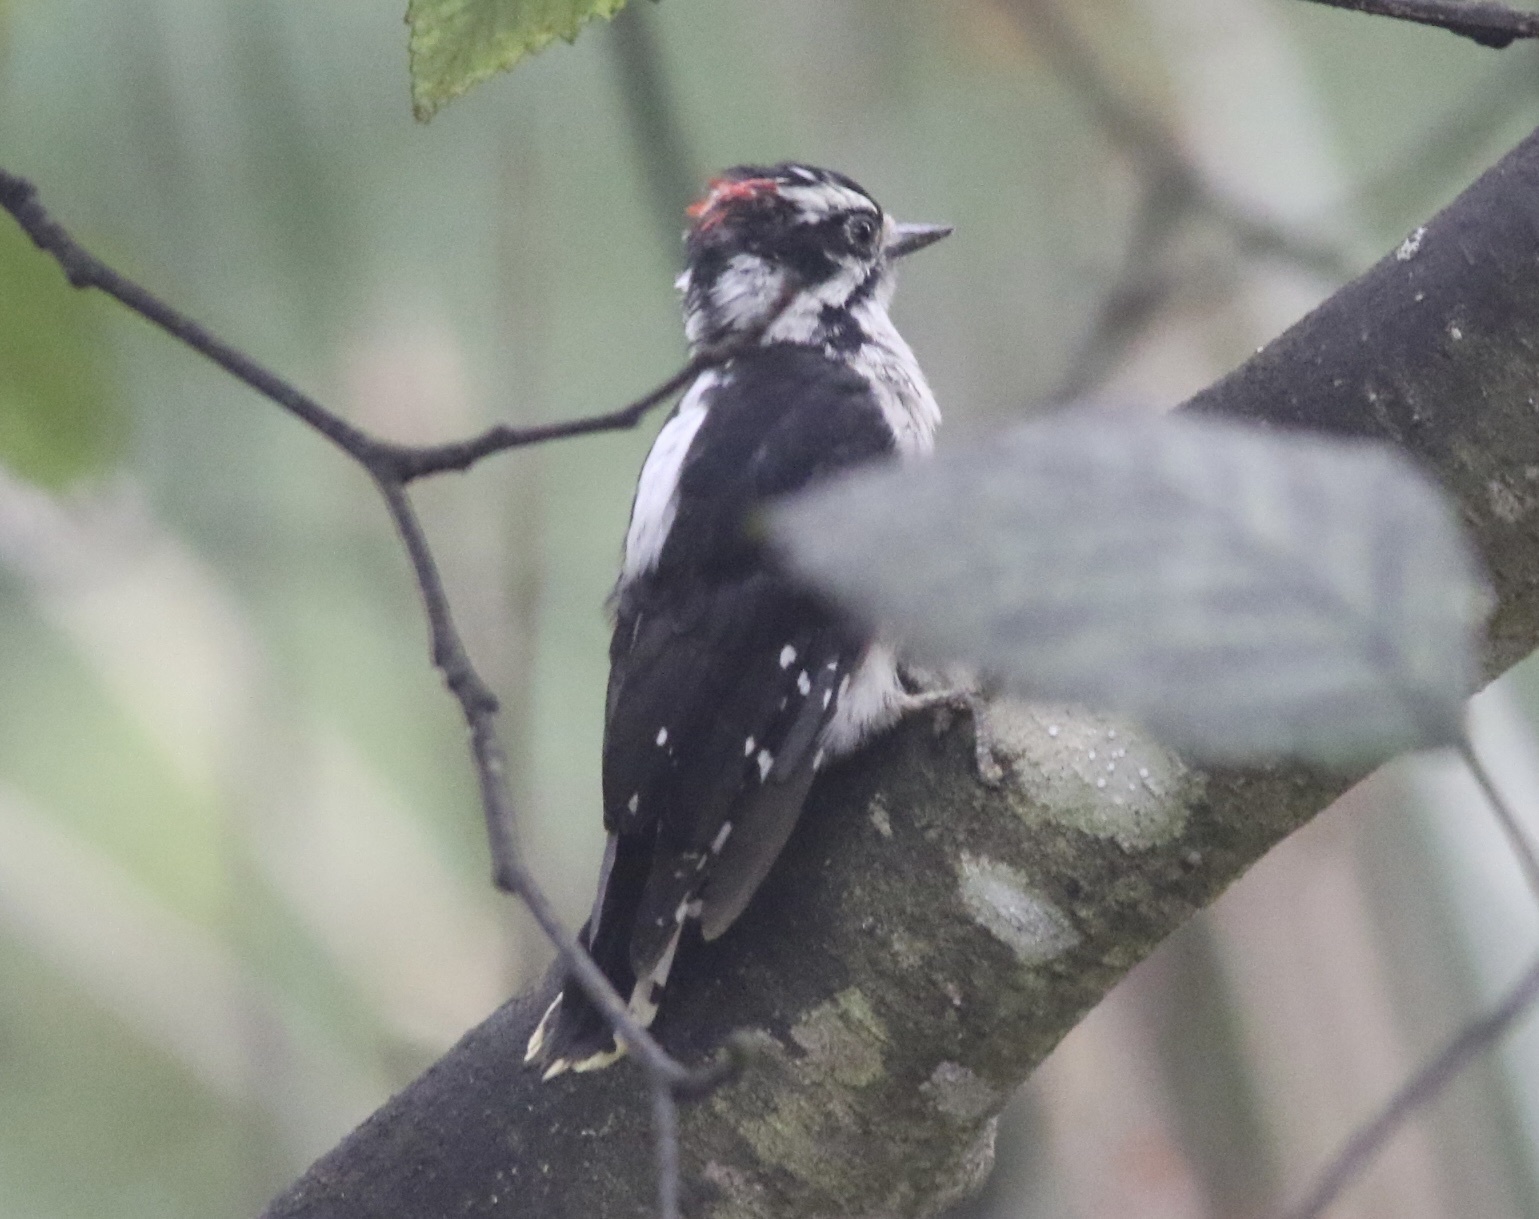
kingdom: Animalia
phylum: Chordata
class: Aves
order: Piciformes
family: Picidae
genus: Dryobates
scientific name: Dryobates pubescens
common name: Downy woodpecker
